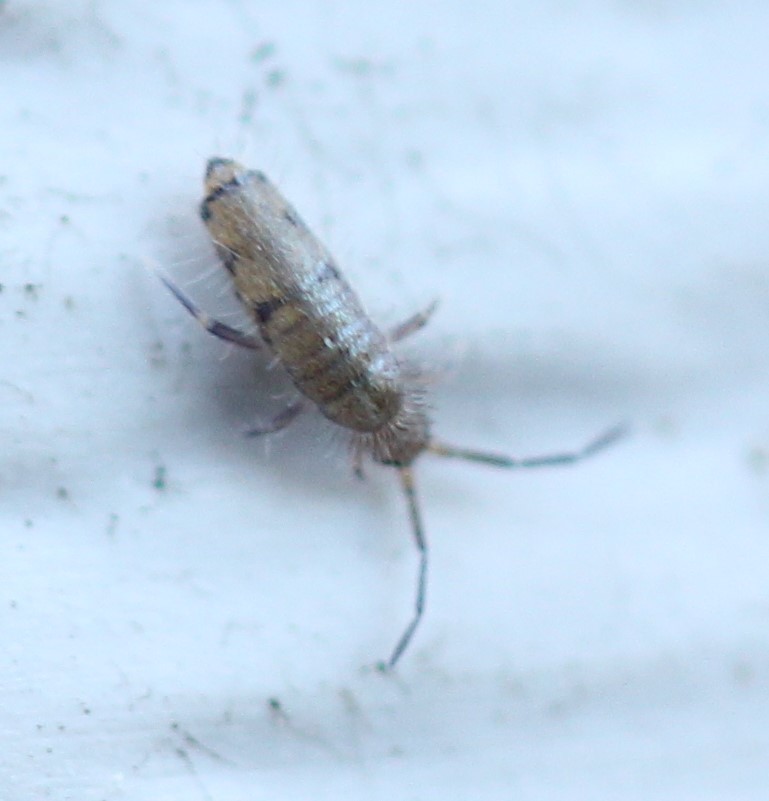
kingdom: Animalia
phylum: Arthropoda
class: Collembola
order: Entomobryomorpha
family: Entomobryidae
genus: Willowsia
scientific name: Willowsia nigromaculata
